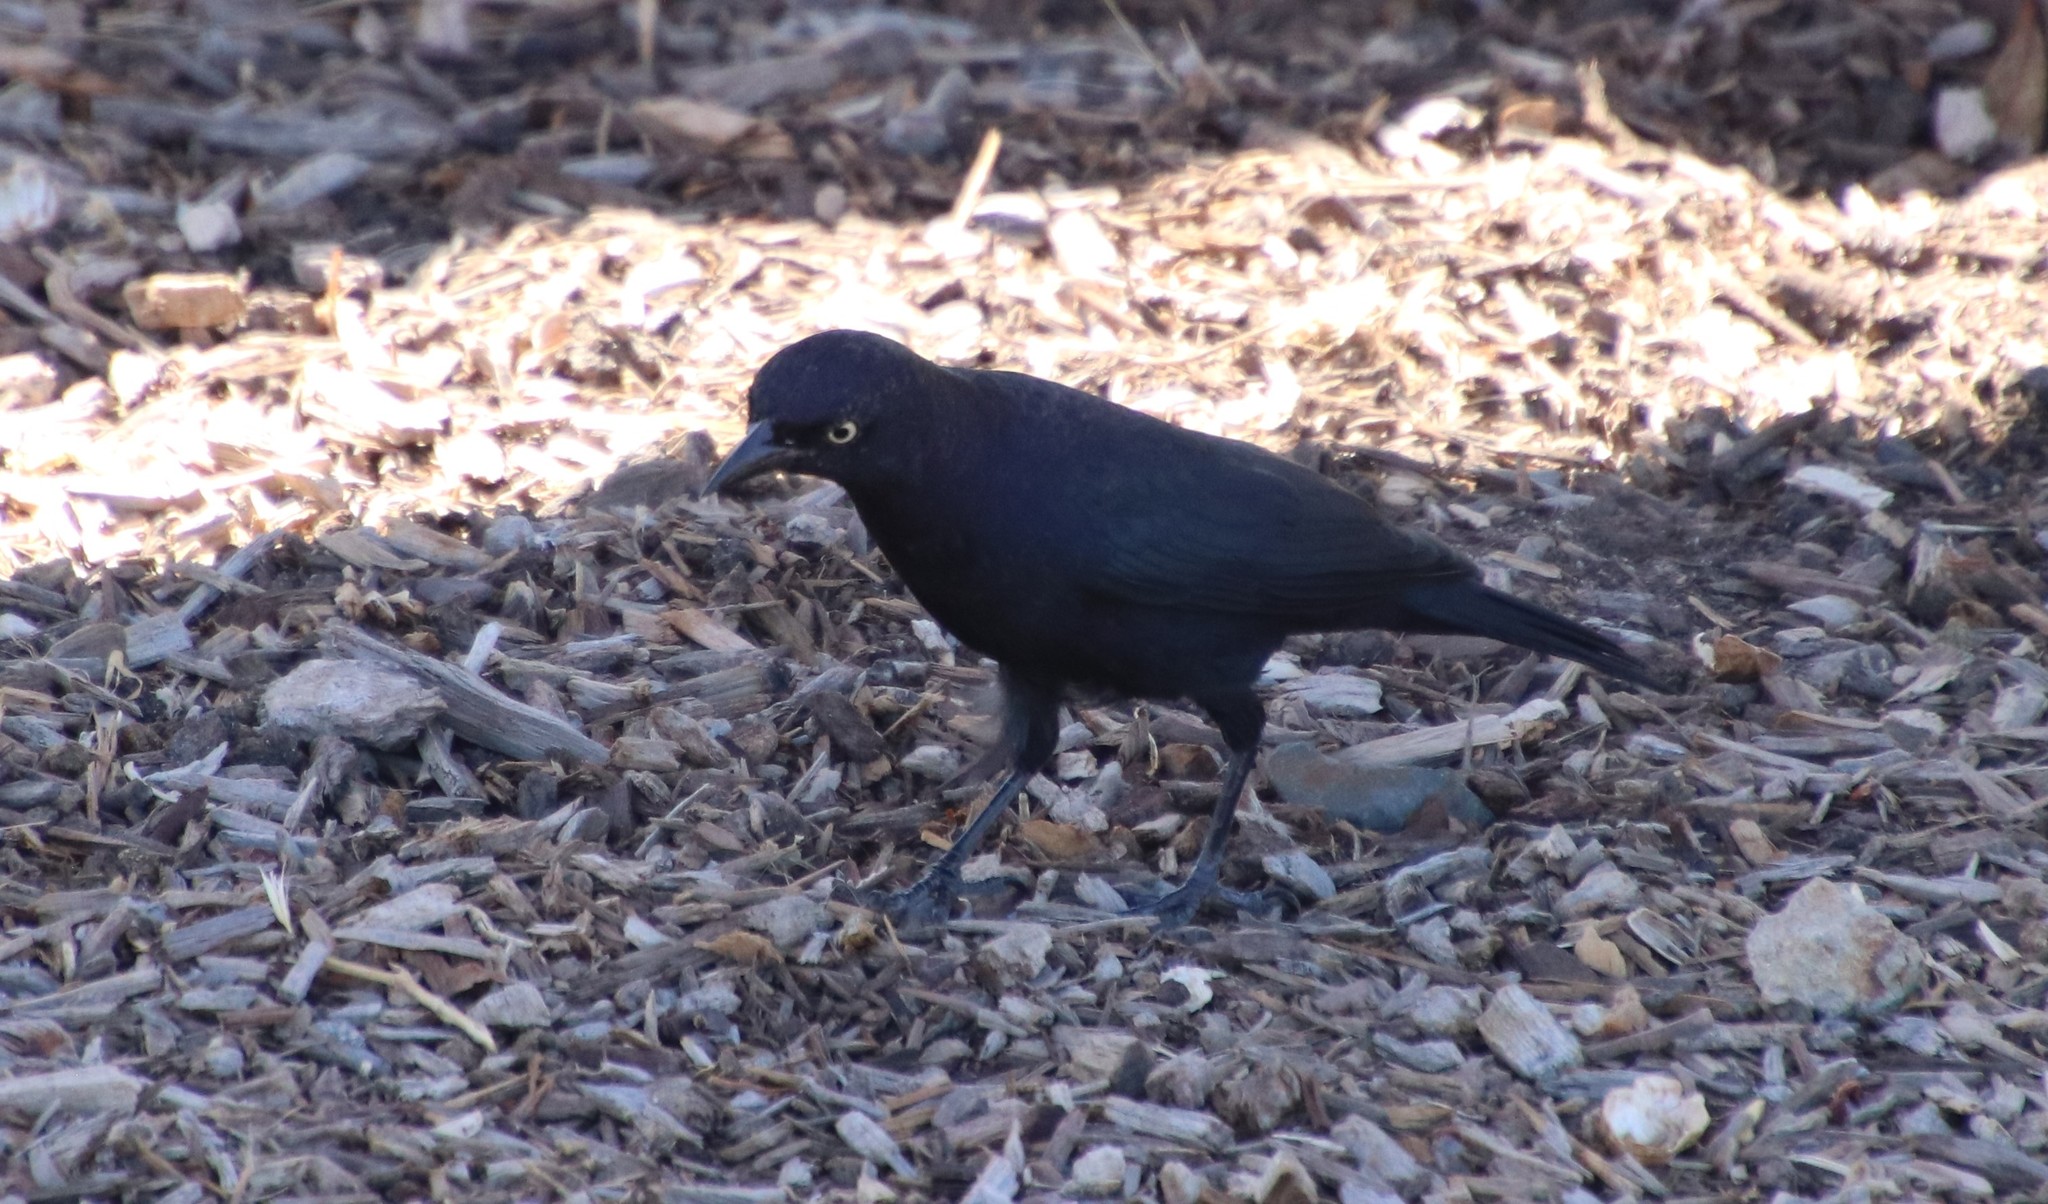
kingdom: Animalia
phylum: Chordata
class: Aves
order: Passeriformes
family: Icteridae
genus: Euphagus
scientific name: Euphagus cyanocephalus
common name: Brewer's blackbird
